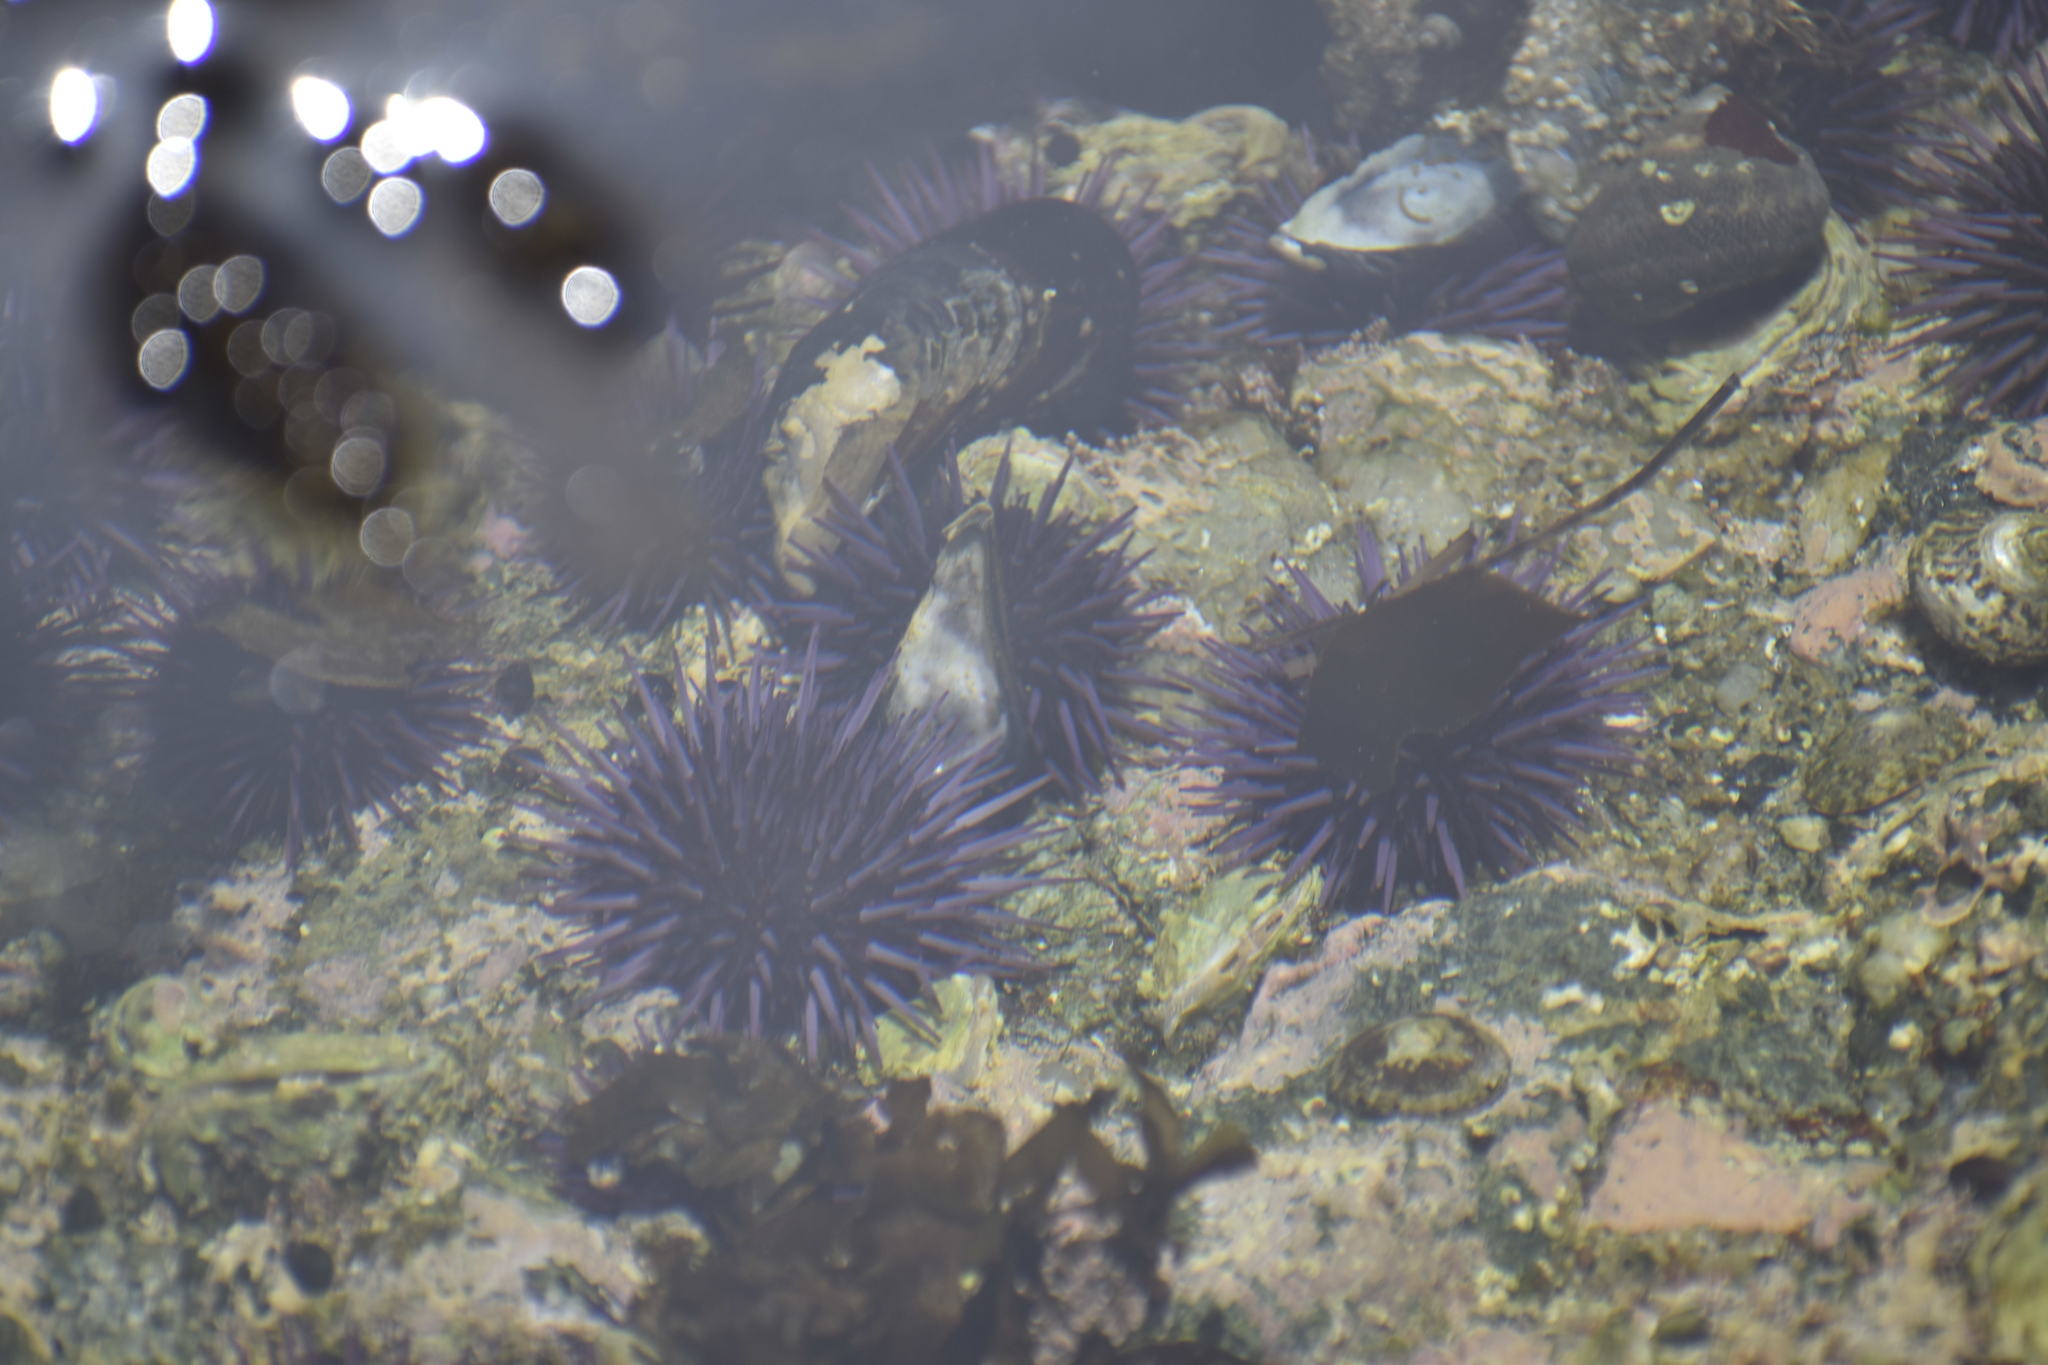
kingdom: Animalia
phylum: Echinodermata
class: Echinoidea
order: Camarodonta
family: Strongylocentrotidae
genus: Strongylocentrotus
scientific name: Strongylocentrotus purpuratus
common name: Purple sea urchin
